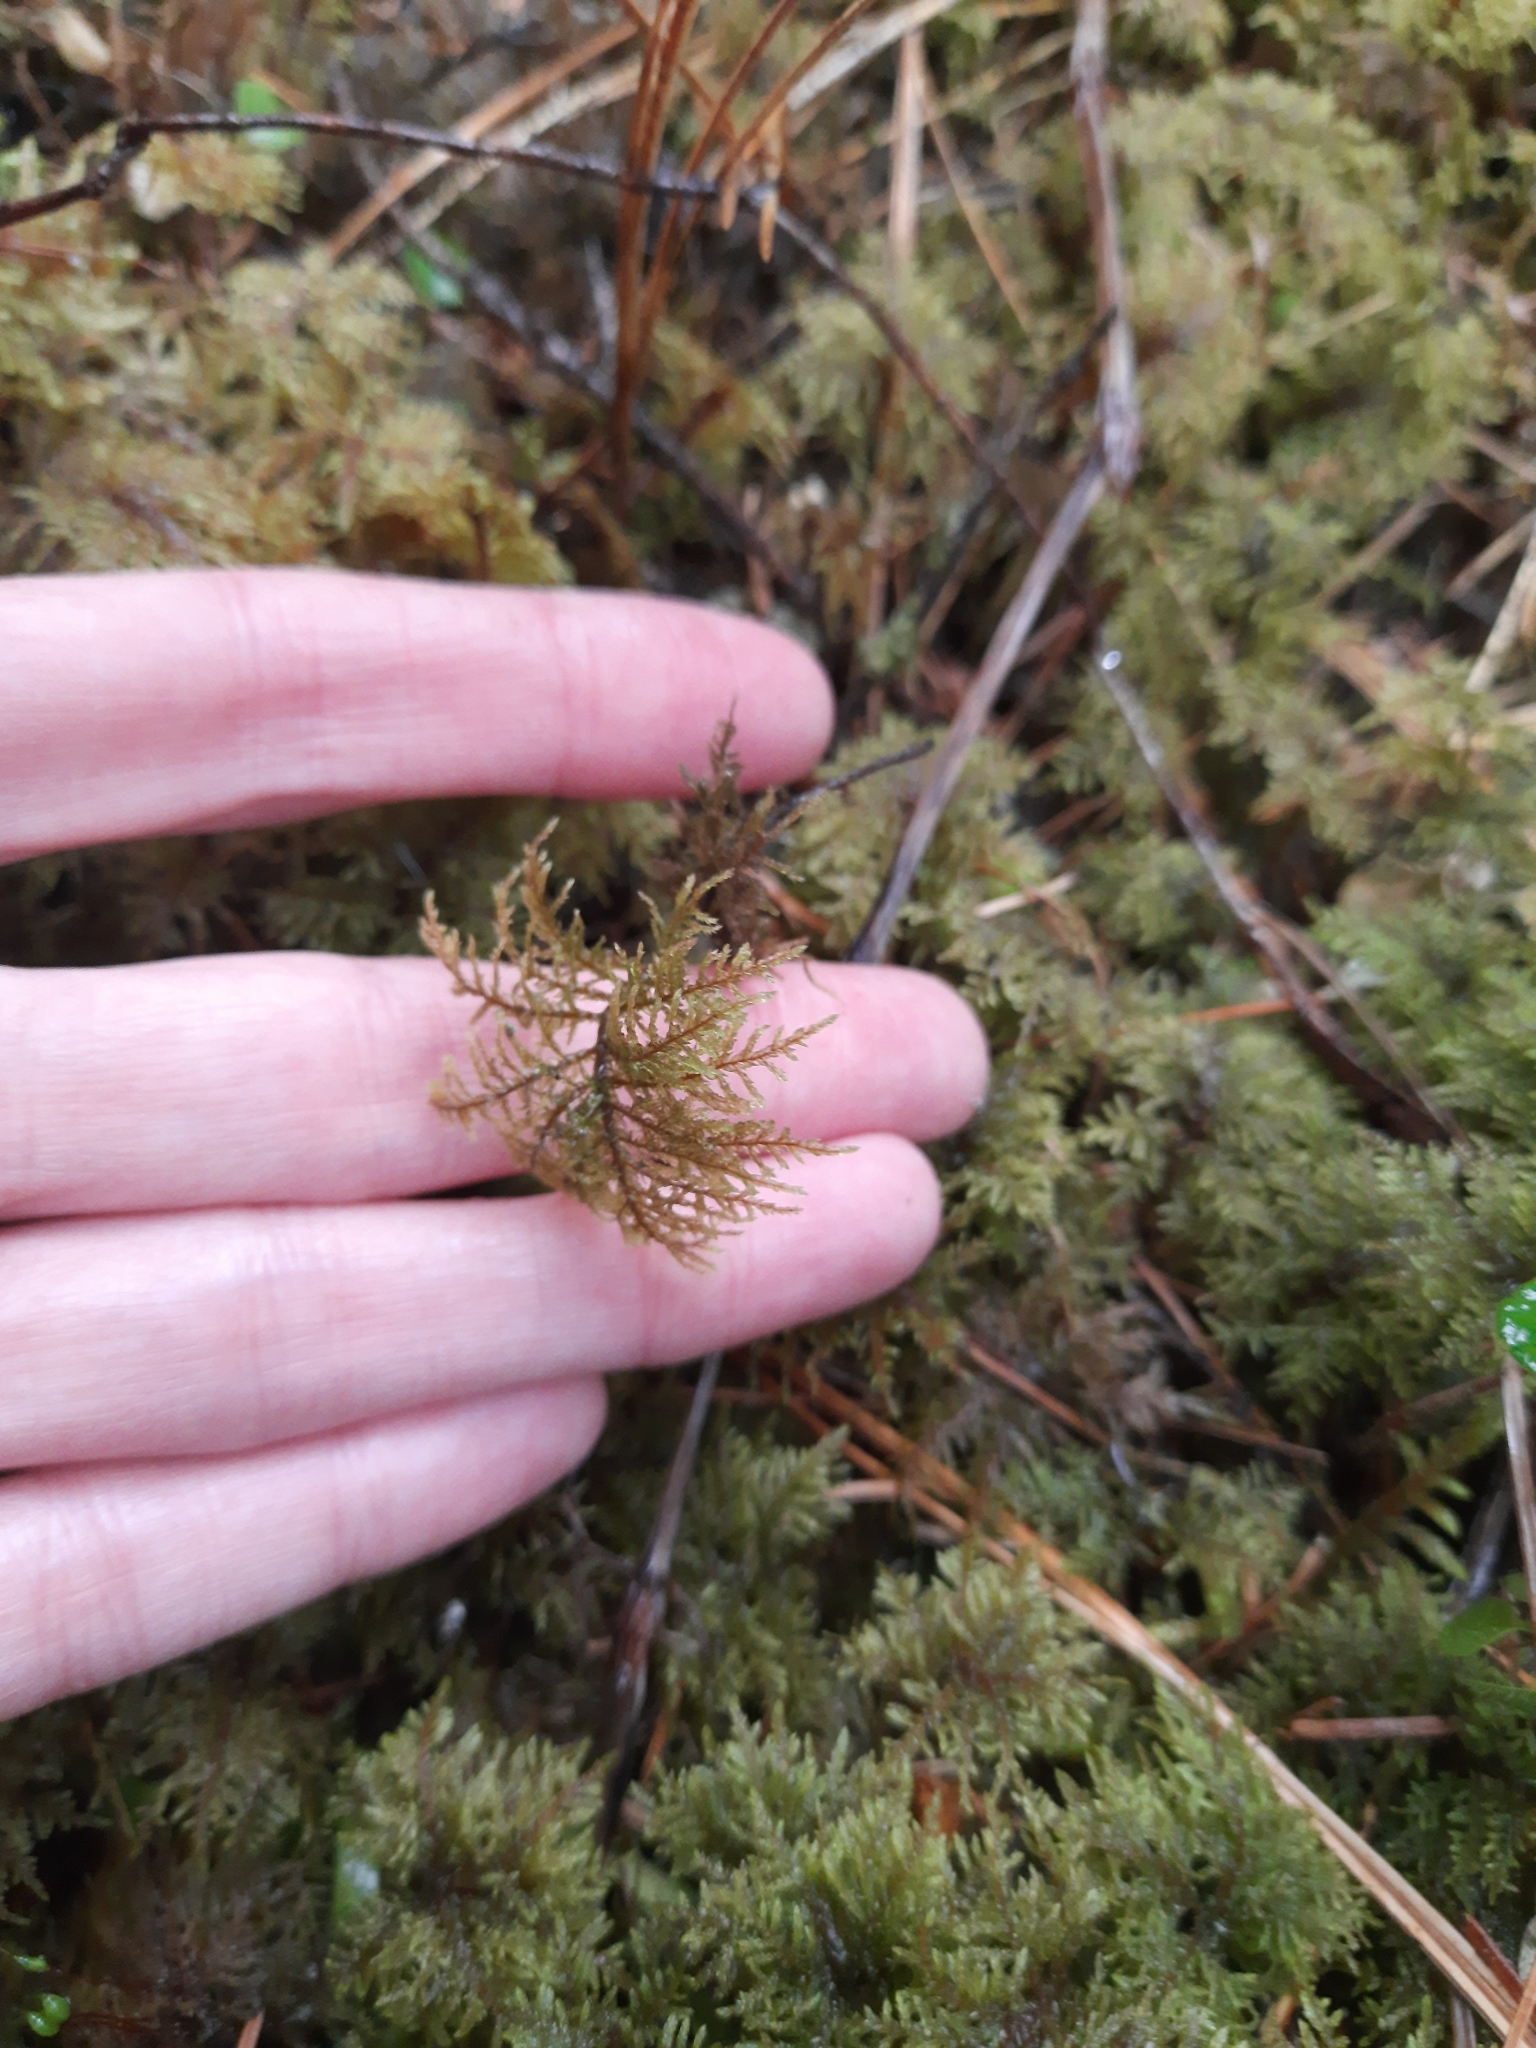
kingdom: Plantae
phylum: Bryophyta
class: Bryopsida
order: Hypnales
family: Hylocomiaceae
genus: Hylocomium
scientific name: Hylocomium splendens
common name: Stairstep moss
